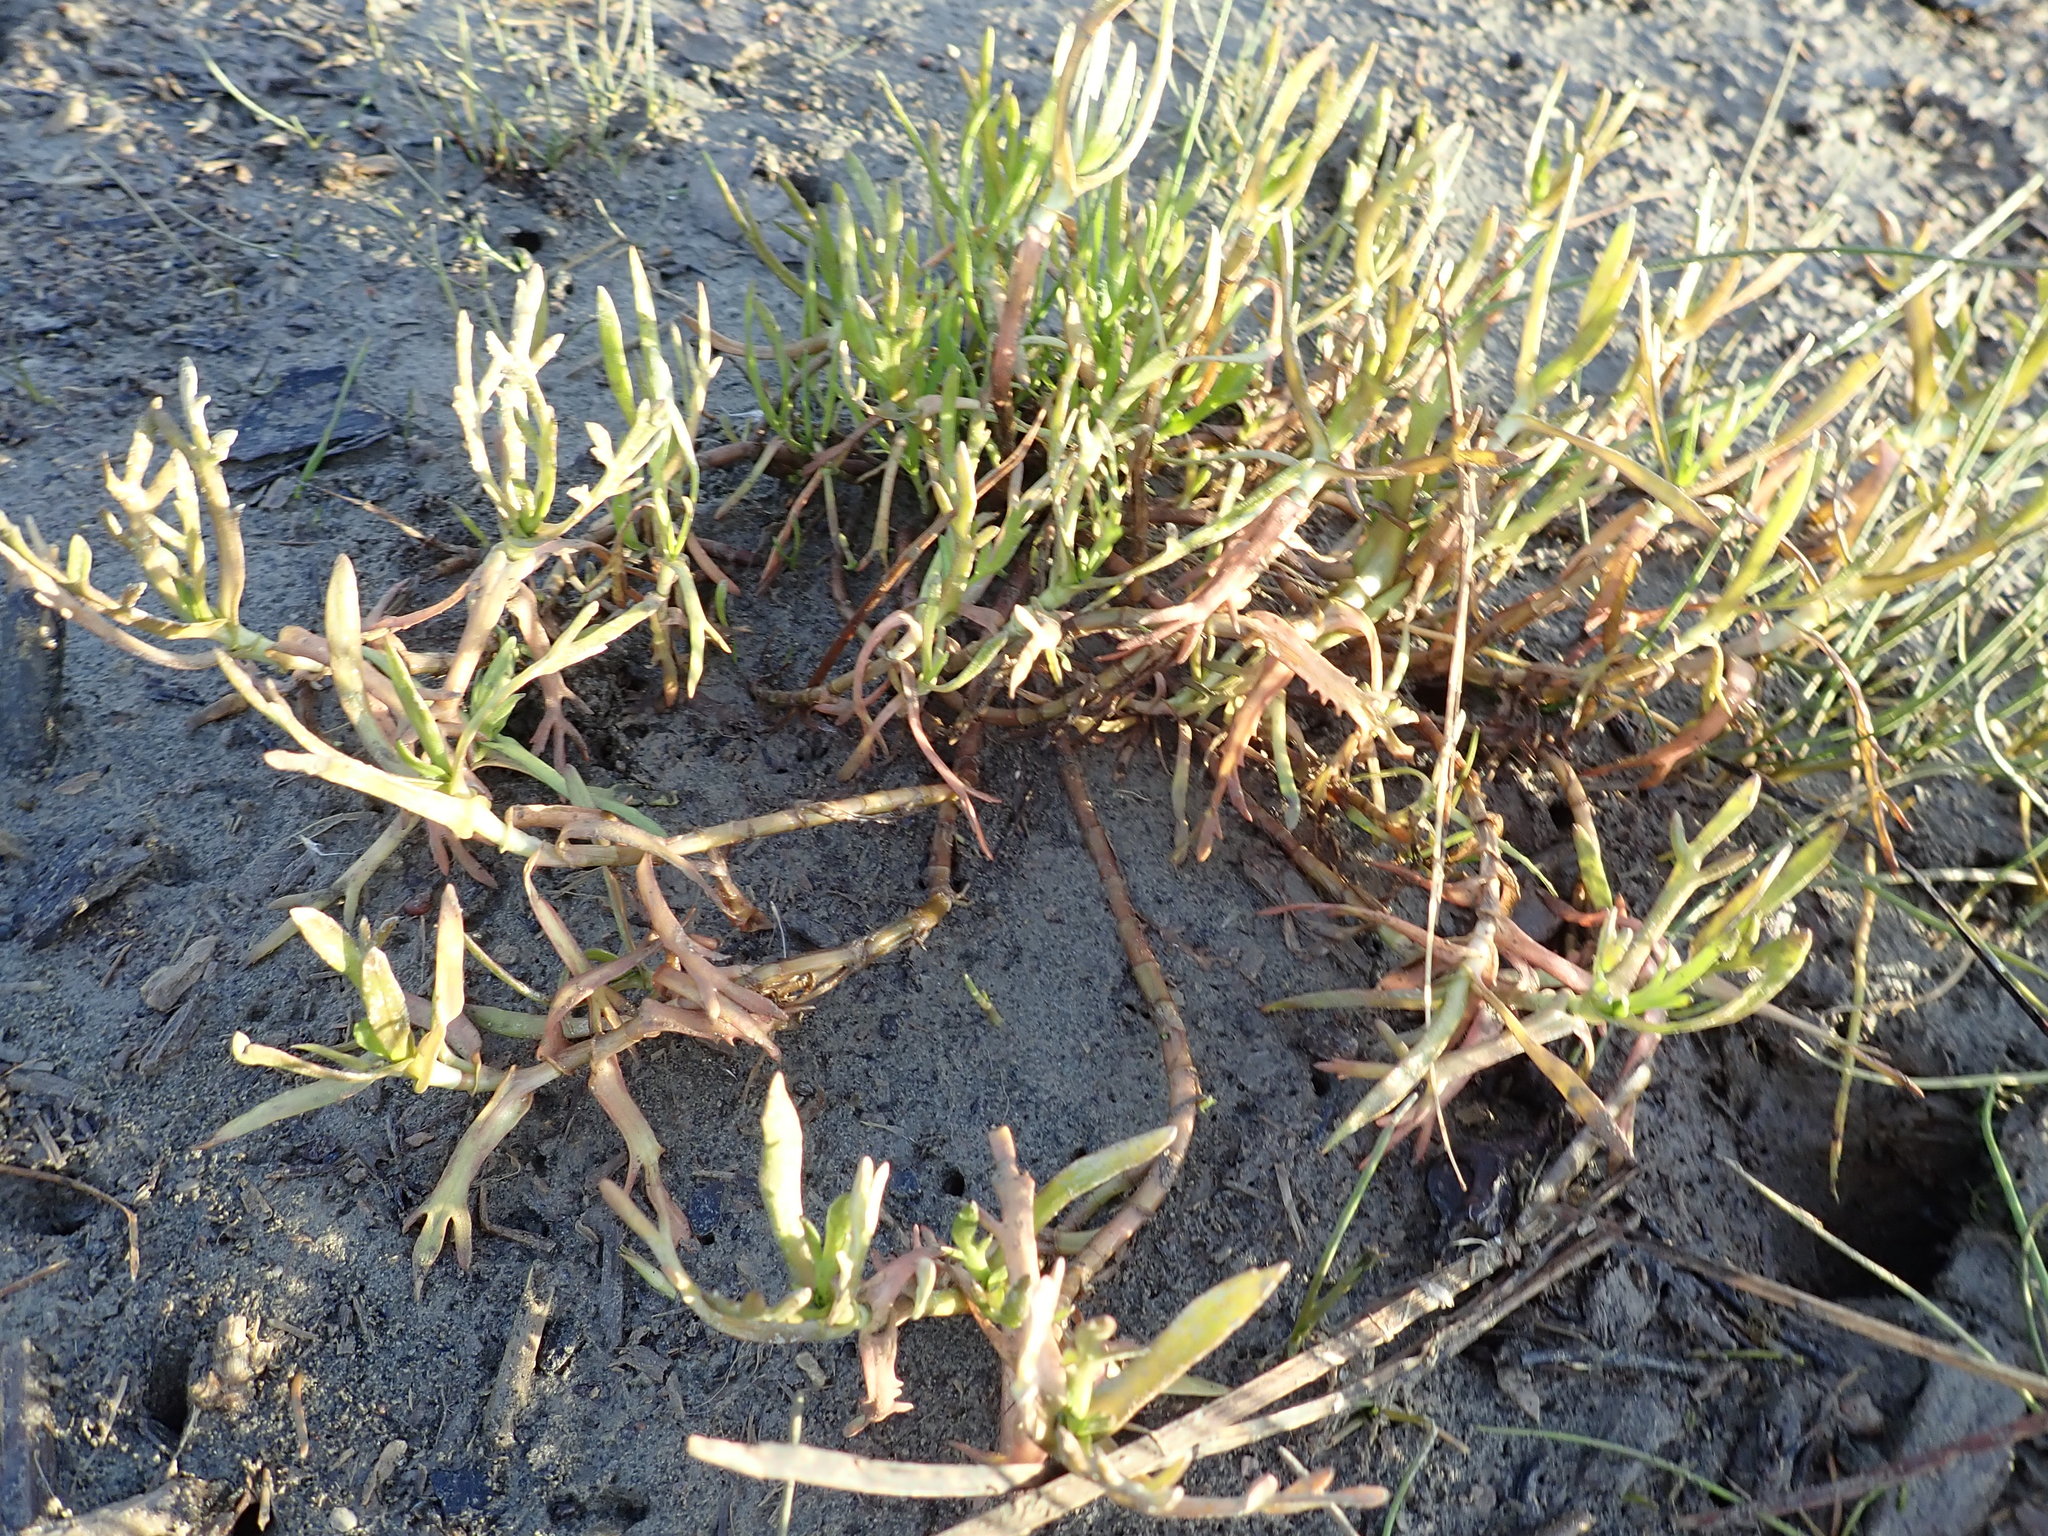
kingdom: Plantae
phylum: Tracheophyta
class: Magnoliopsida
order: Asterales
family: Asteraceae
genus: Cotula
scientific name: Cotula coronopifolia
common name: Buttonweed
